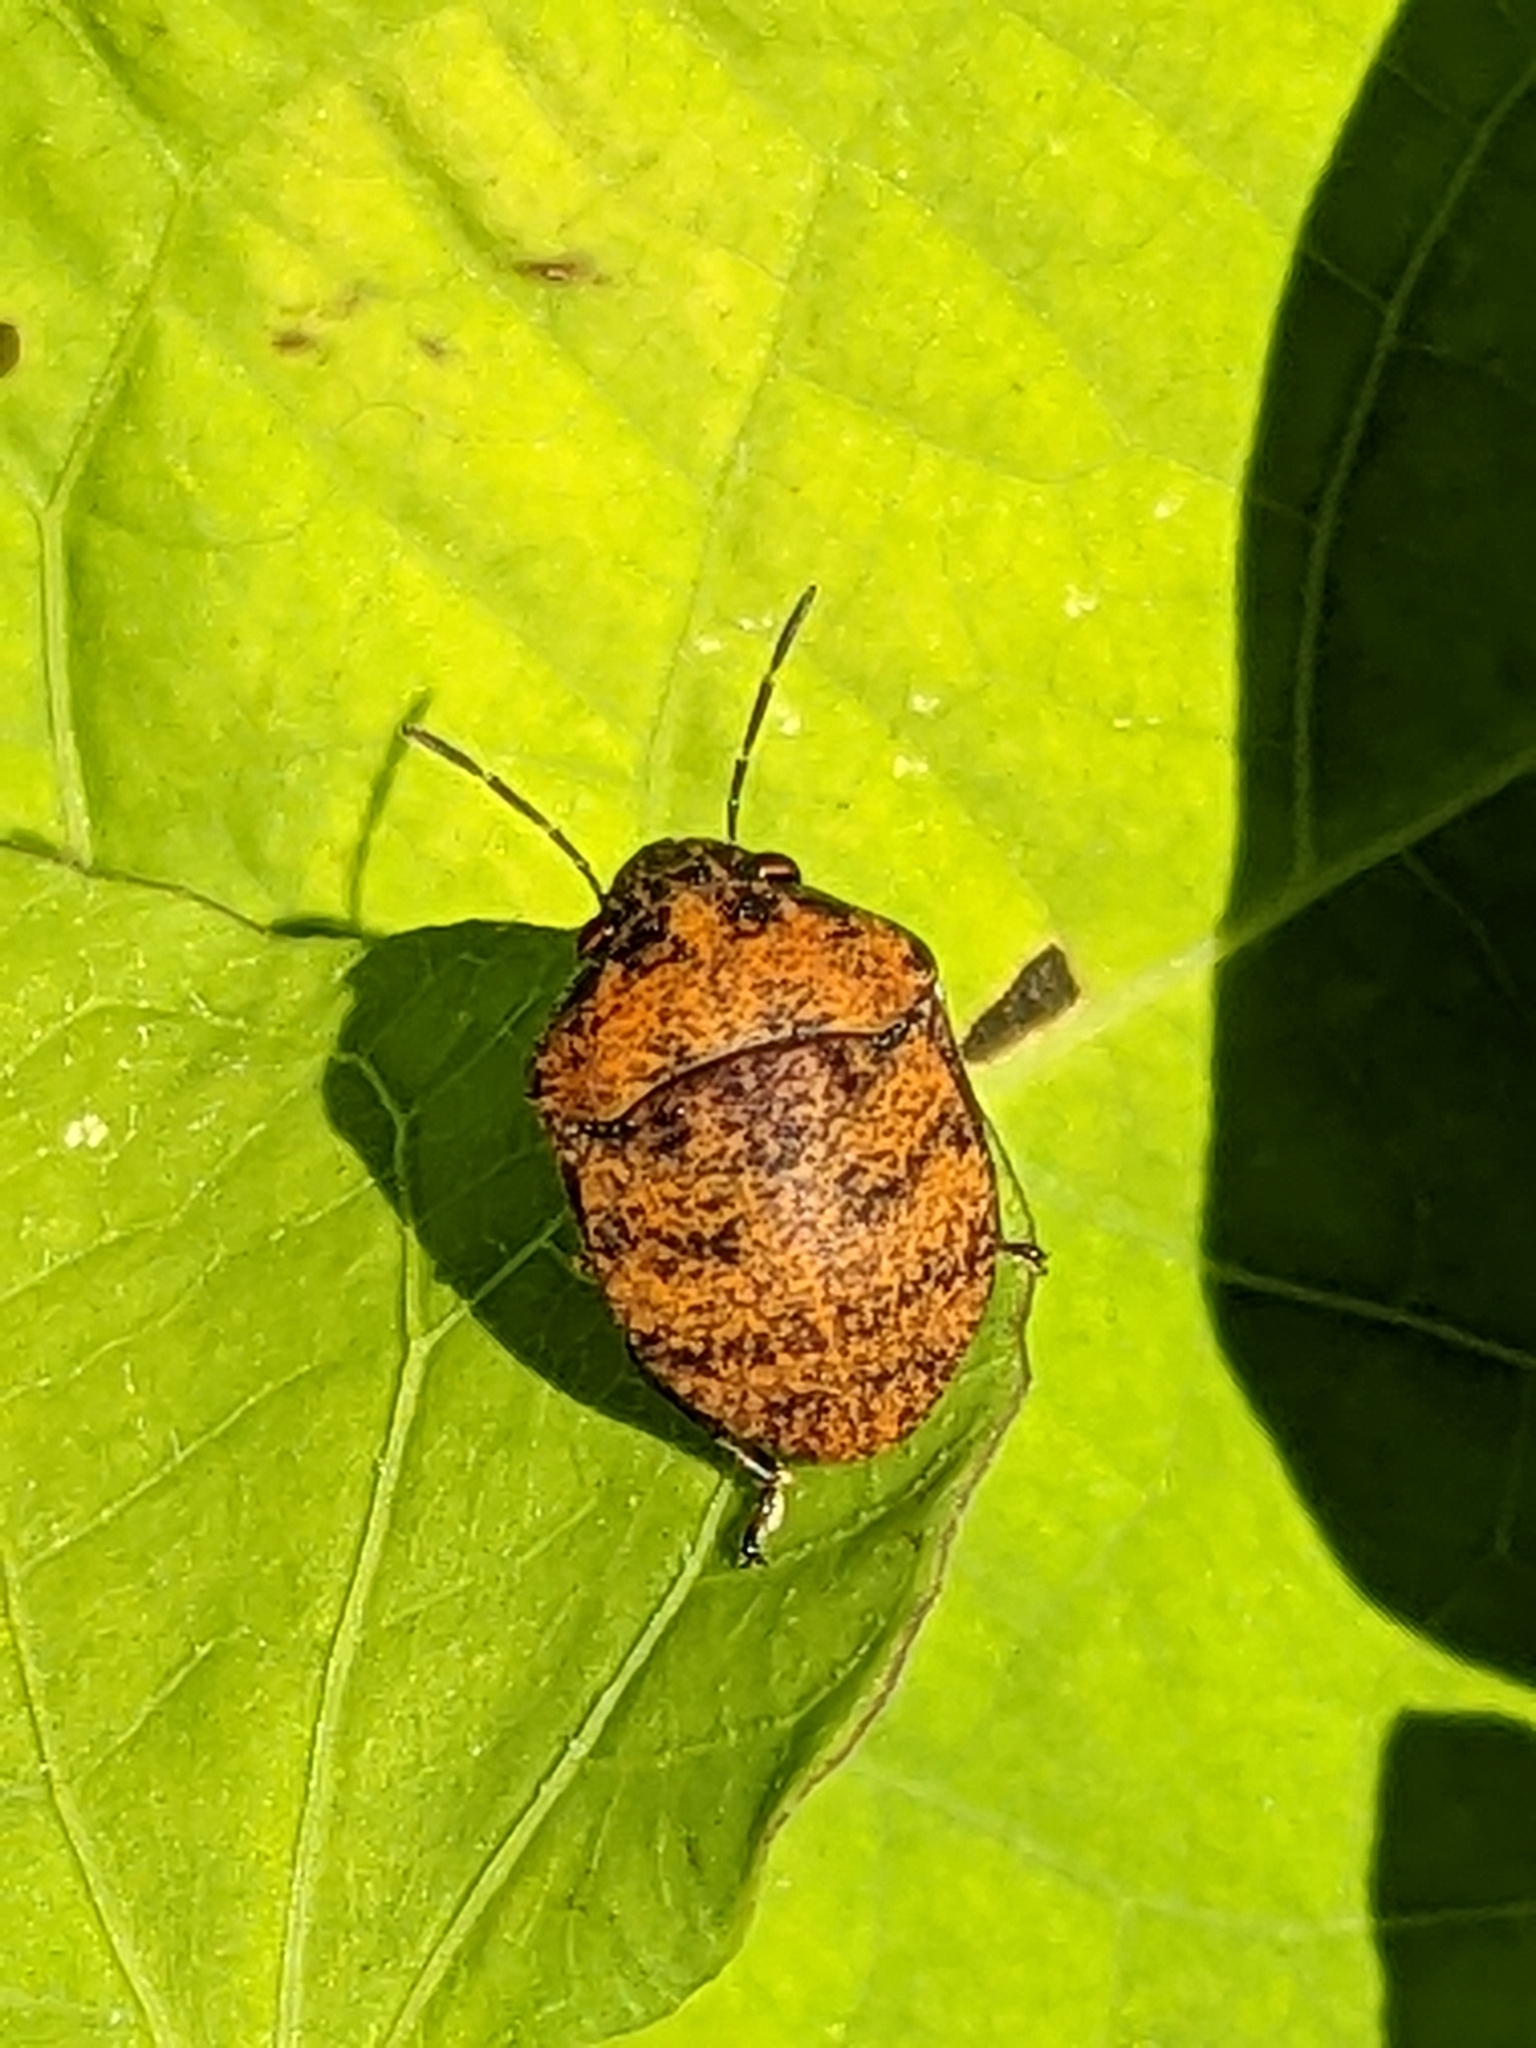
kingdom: Animalia
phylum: Arthropoda
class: Insecta
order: Hemiptera
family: Scutelleridae
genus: Orsilochides
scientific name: Orsilochides
